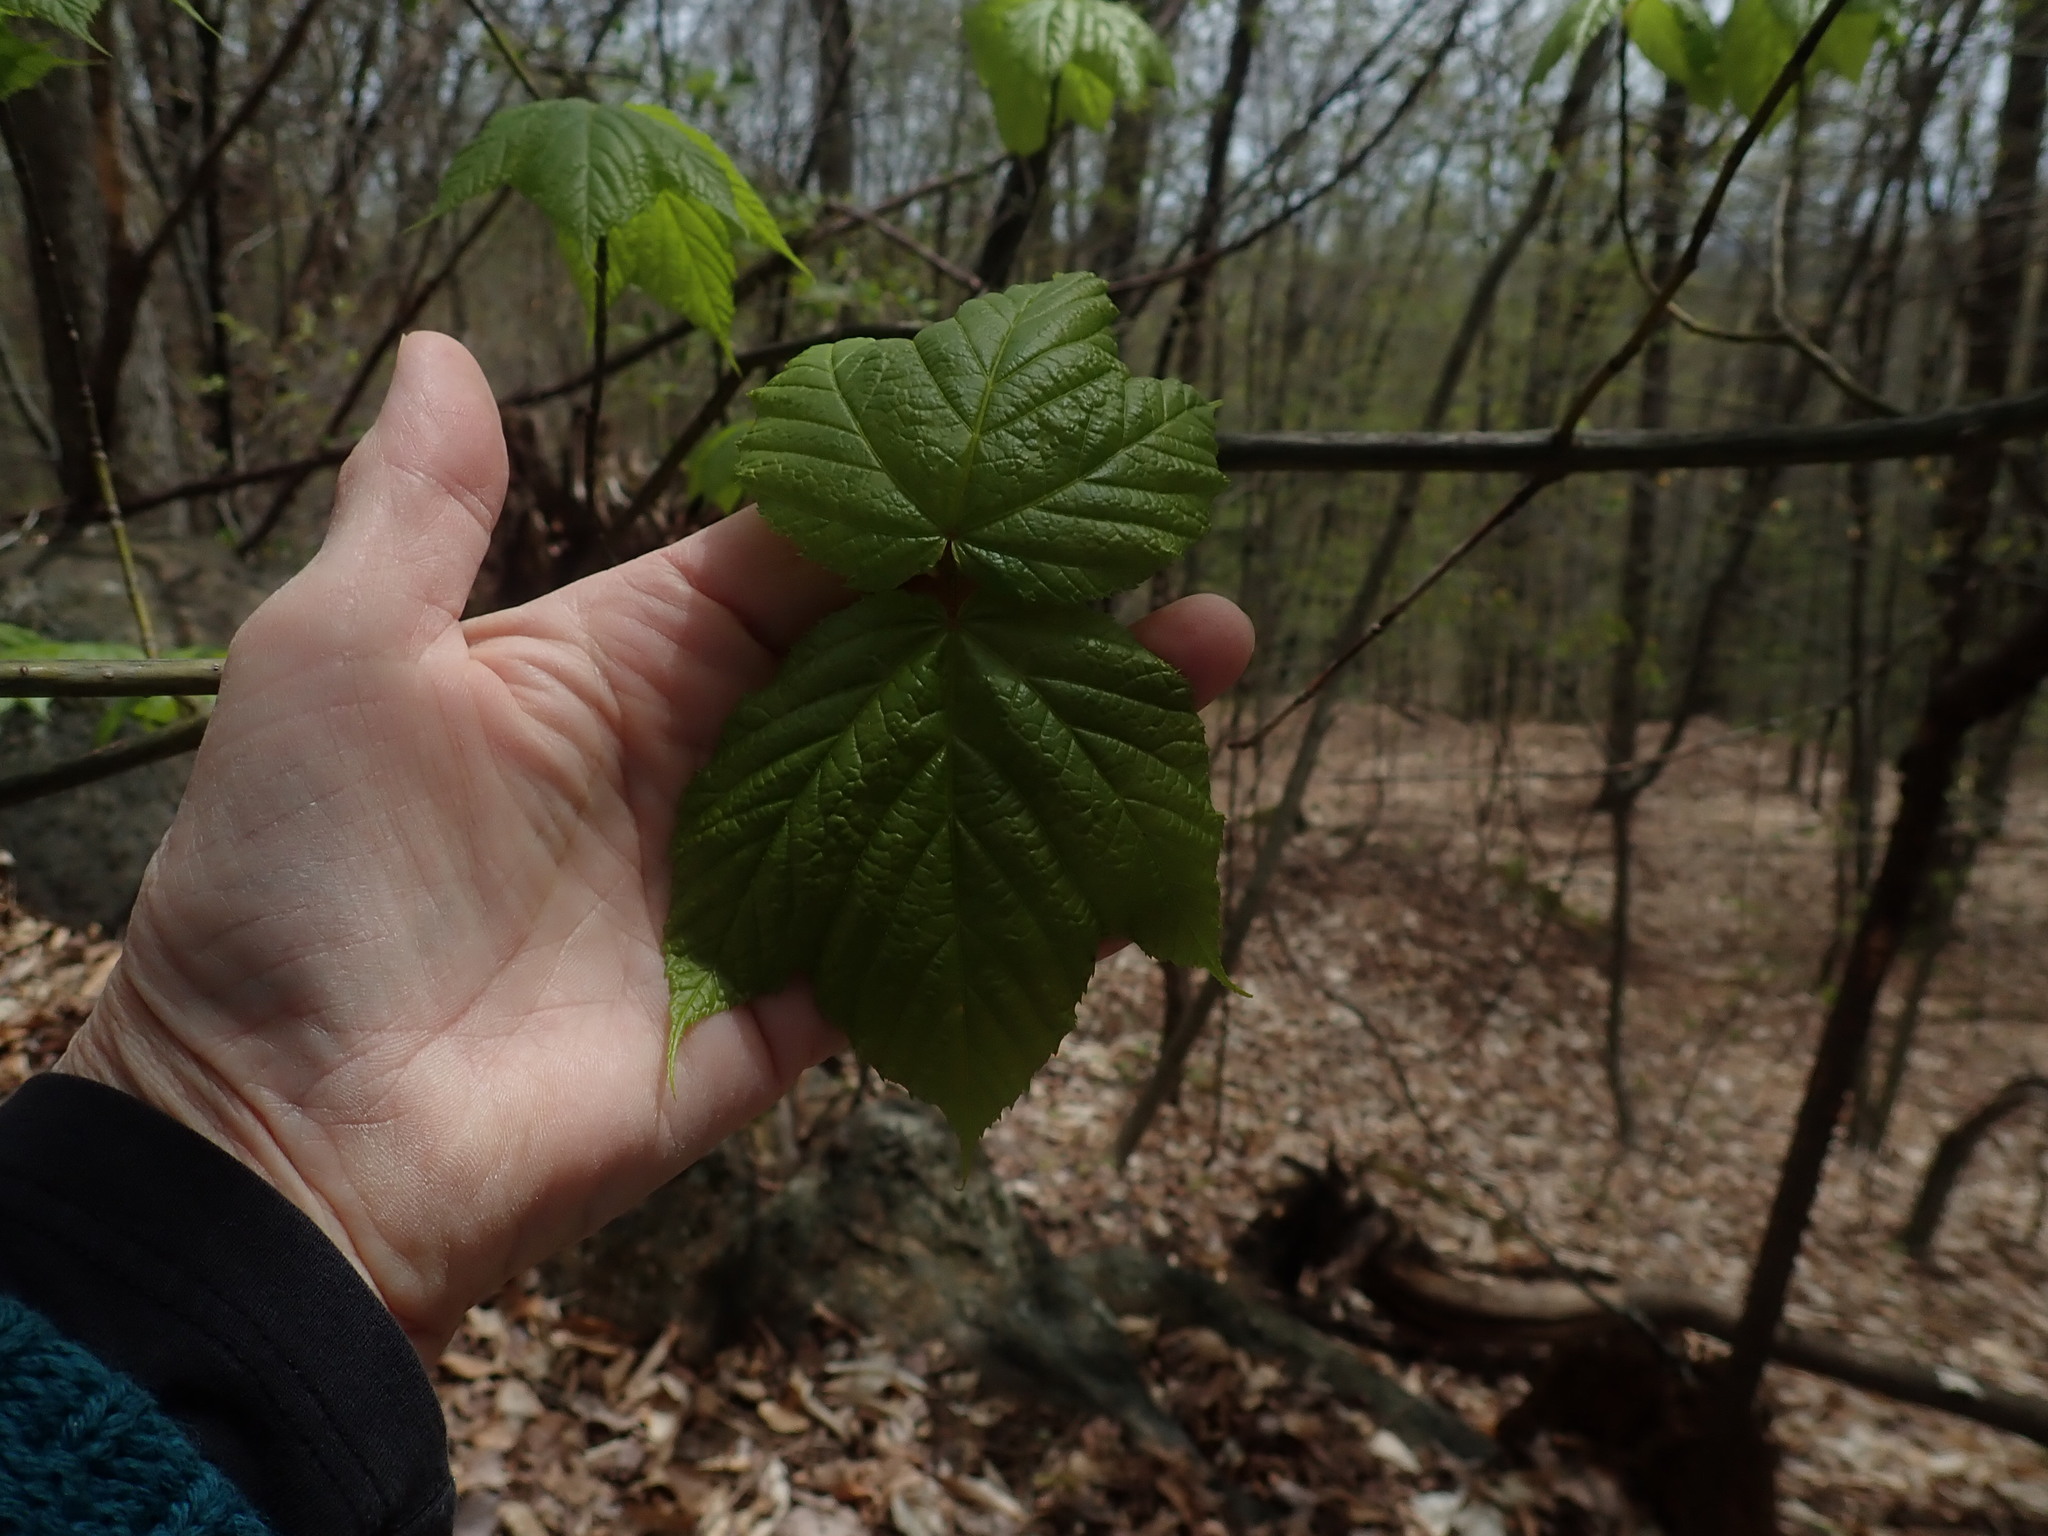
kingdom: Plantae
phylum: Tracheophyta
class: Magnoliopsida
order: Sapindales
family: Sapindaceae
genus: Acer
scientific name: Acer pensylvanicum
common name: Moosewood
